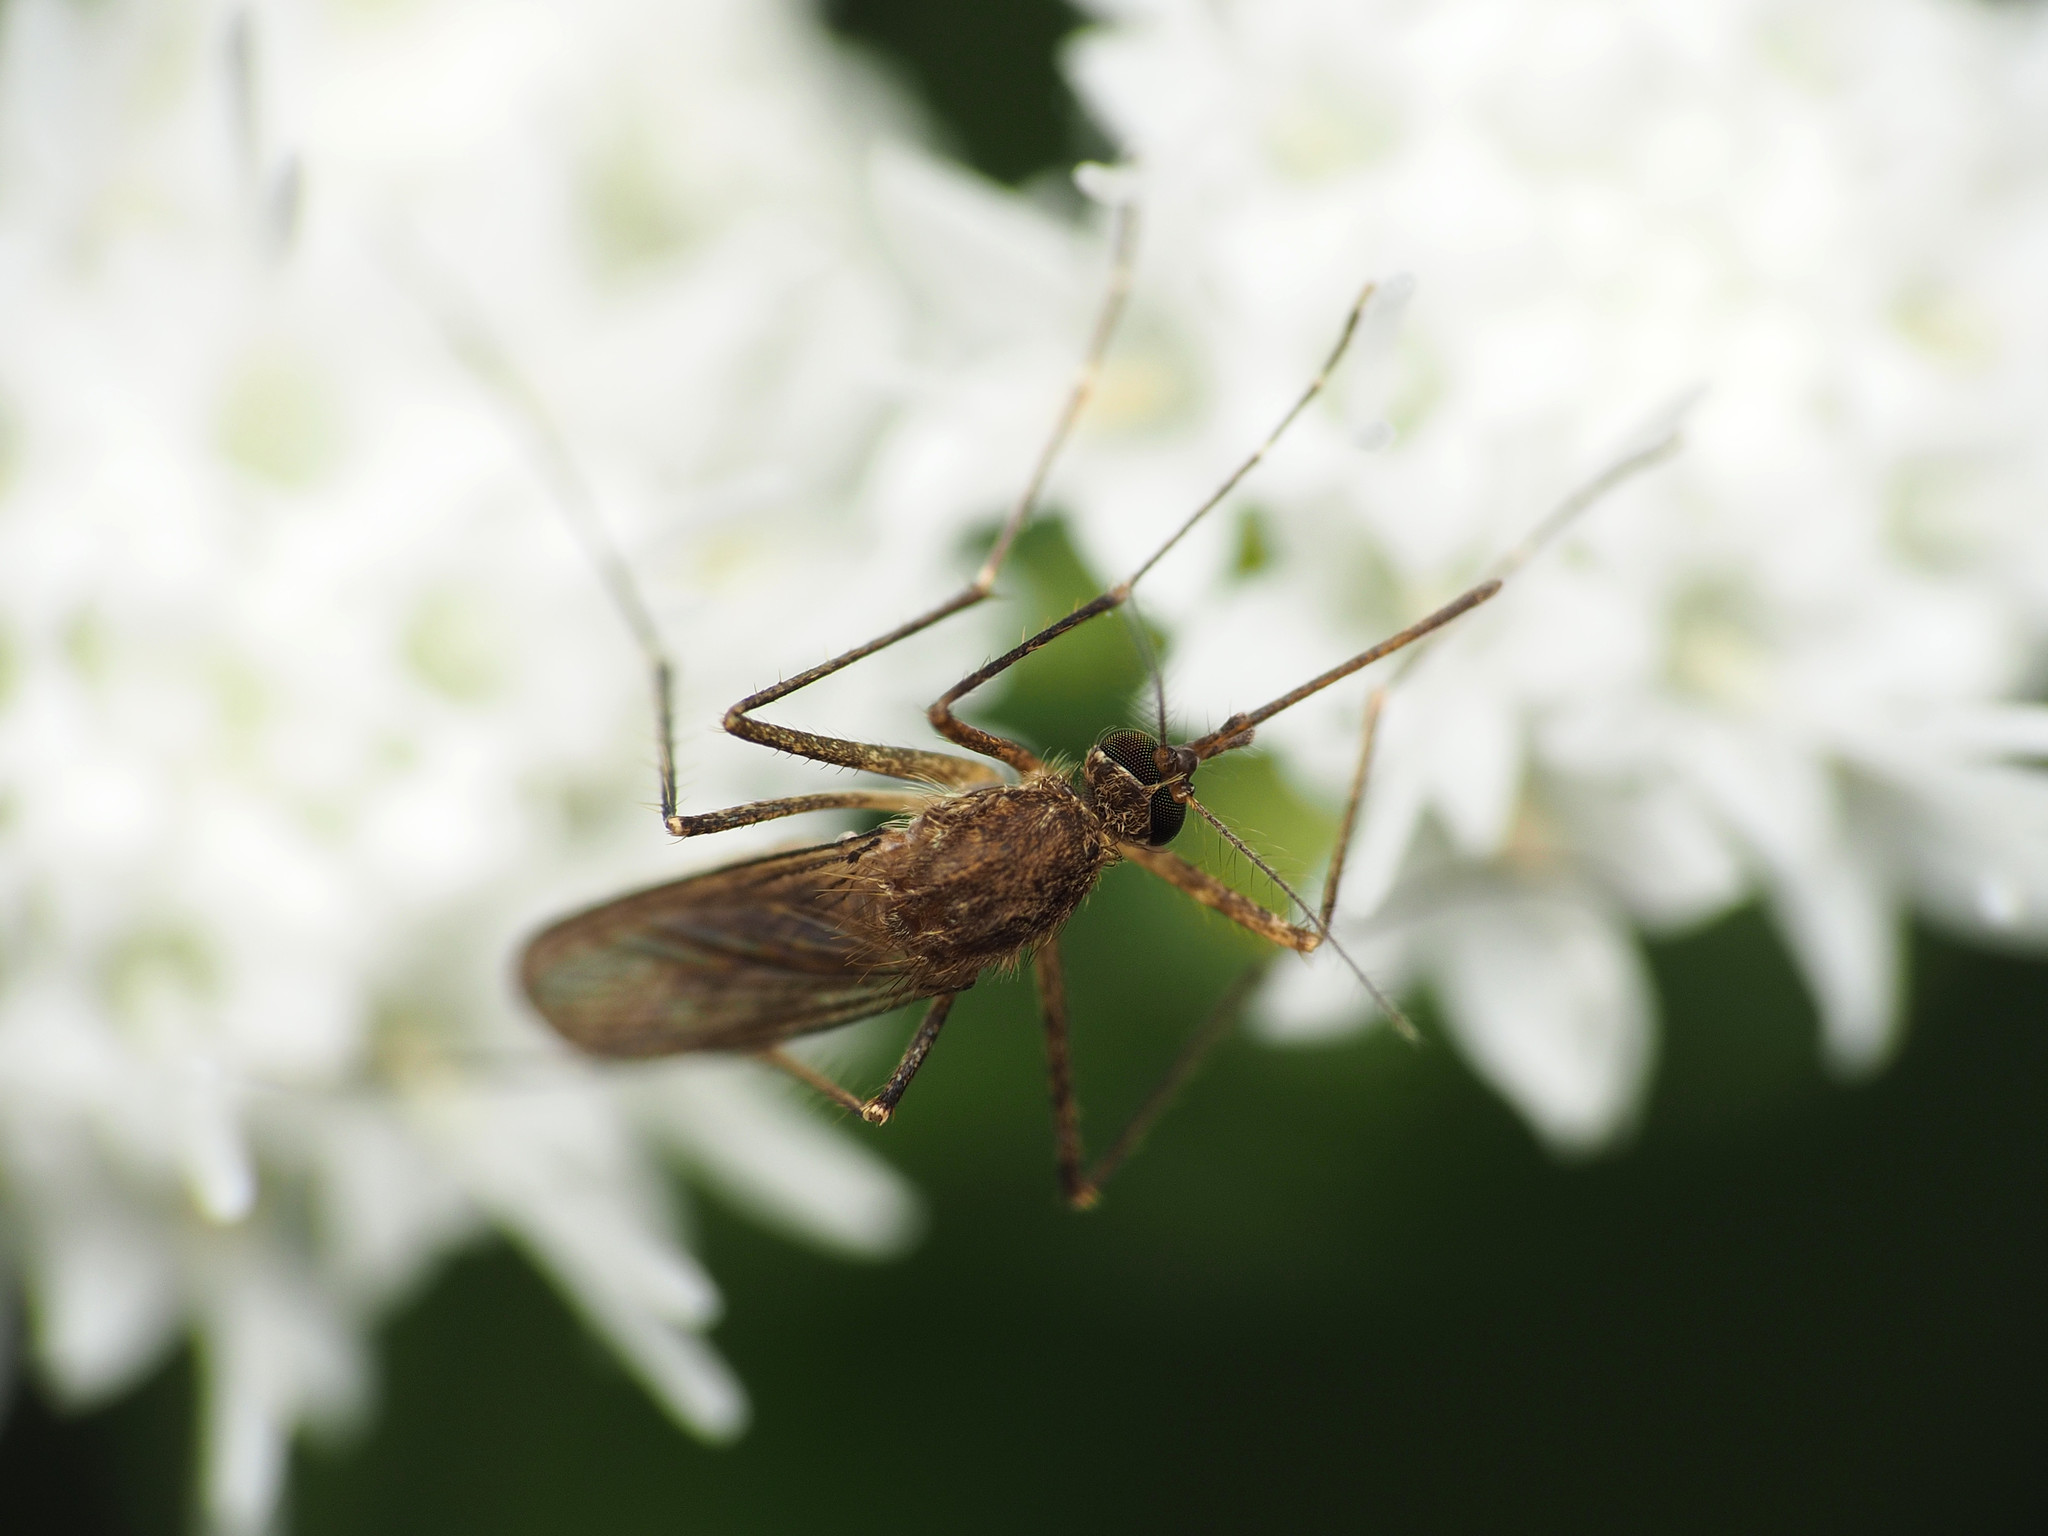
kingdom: Animalia
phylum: Arthropoda
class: Insecta
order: Diptera
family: Culicidae
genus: Aedes
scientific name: Aedes vexans
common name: Inland floodwater mosquito
